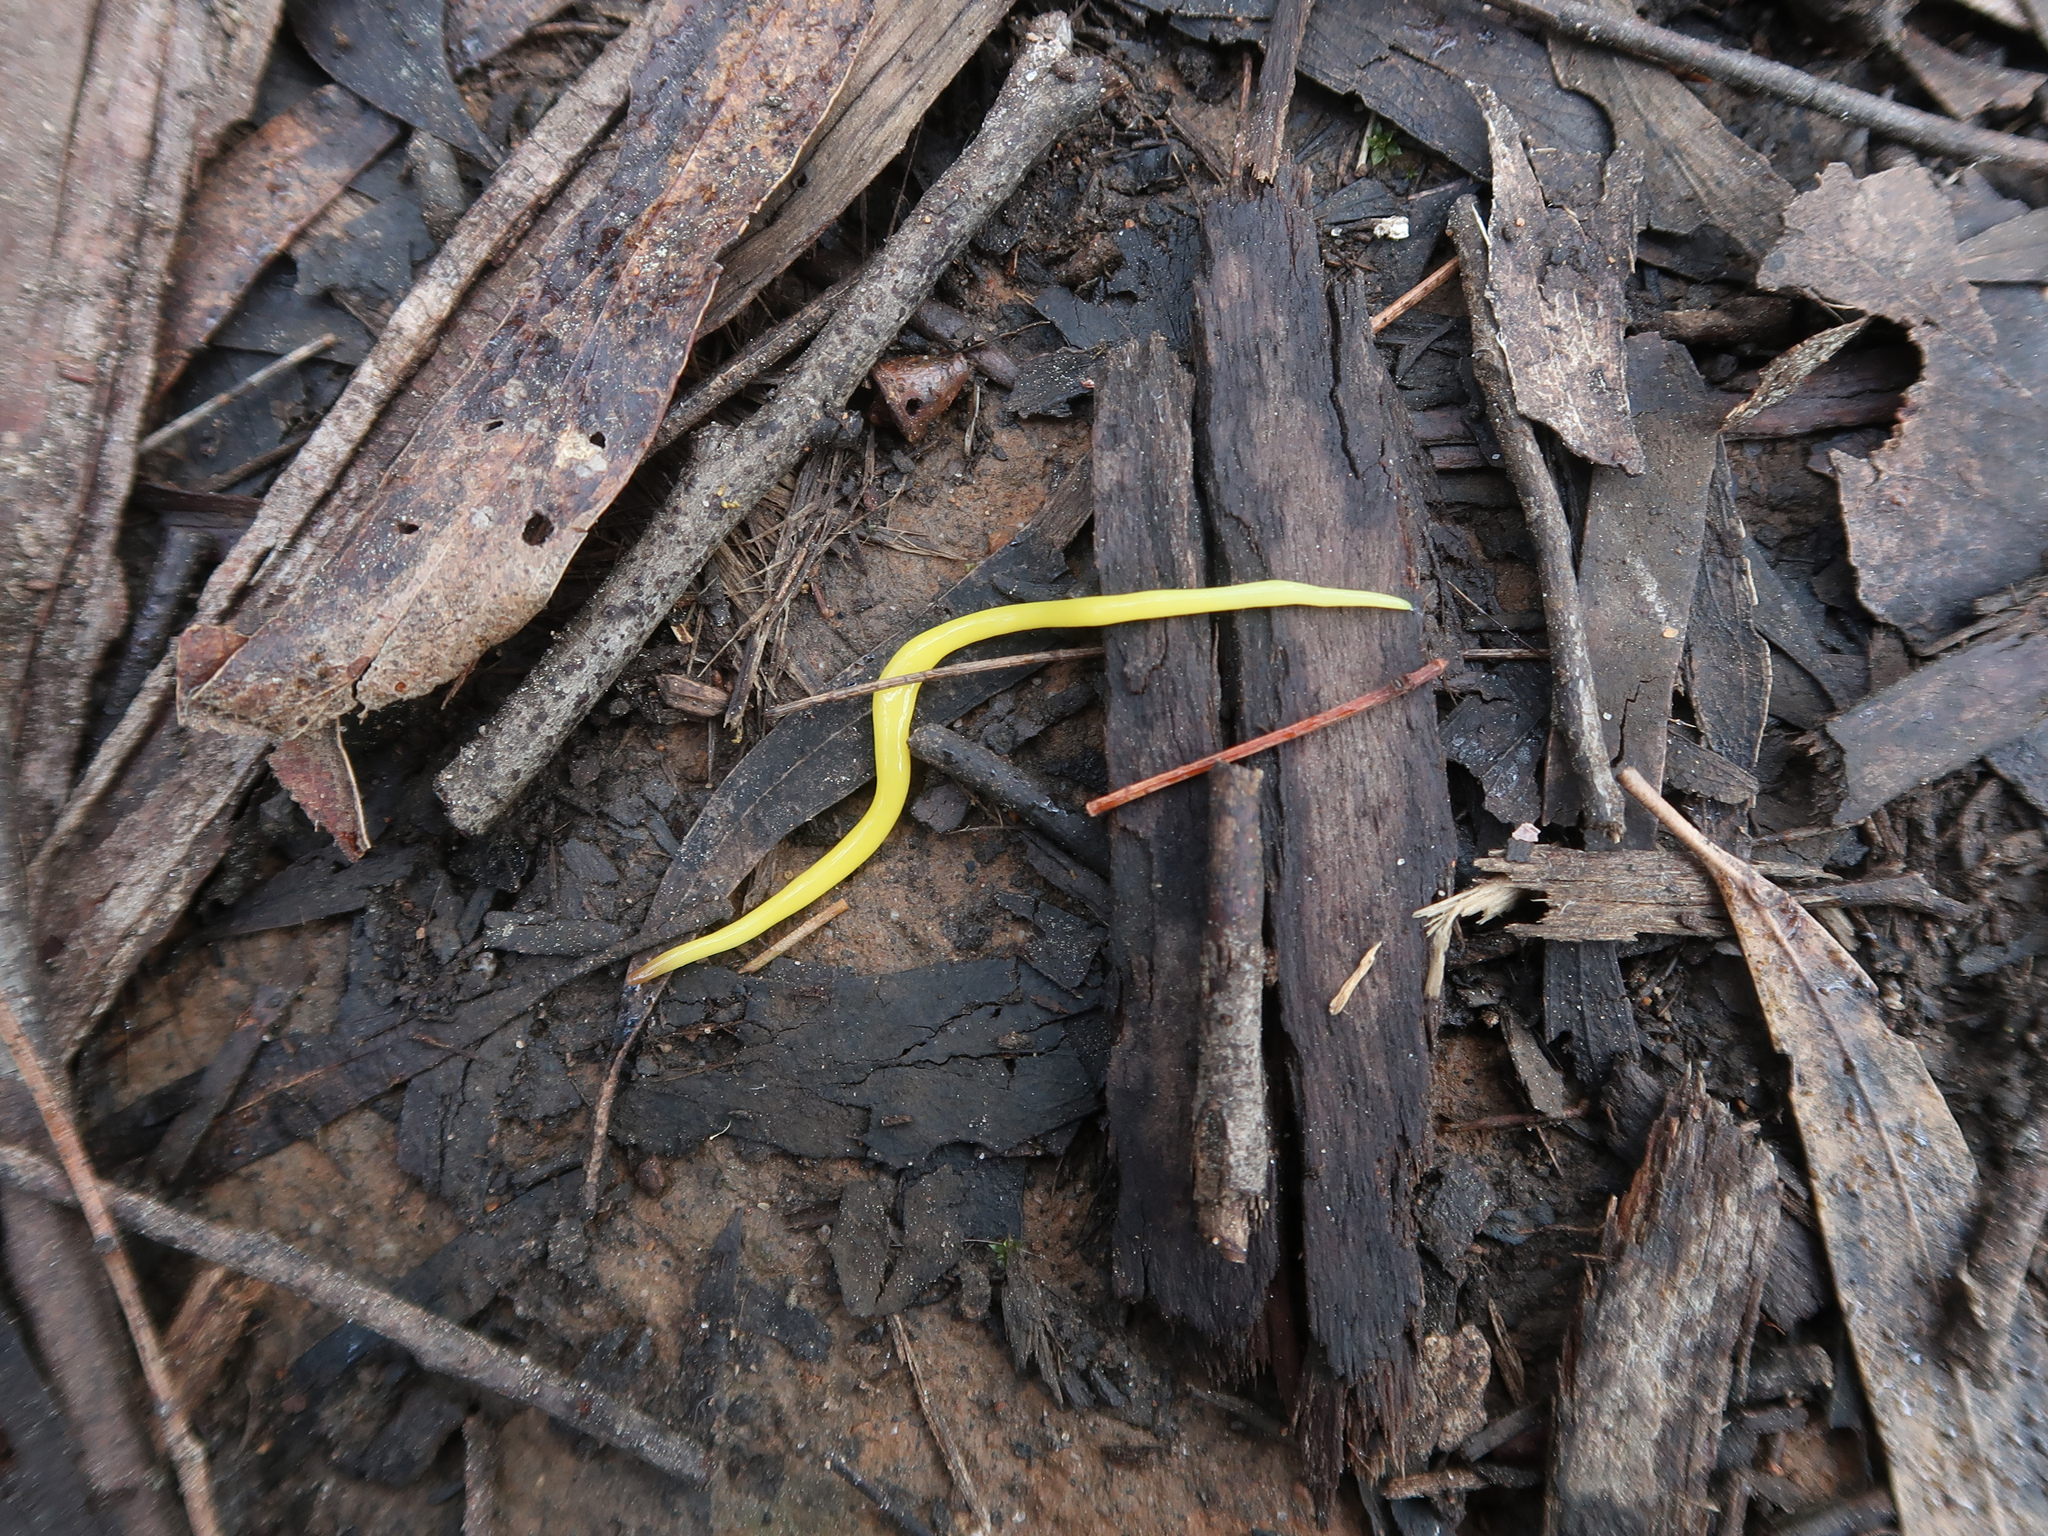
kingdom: Animalia
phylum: Platyhelminthes
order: Tricladida
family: Geoplanidae
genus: Fletchamia
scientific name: Fletchamia sugdeni
